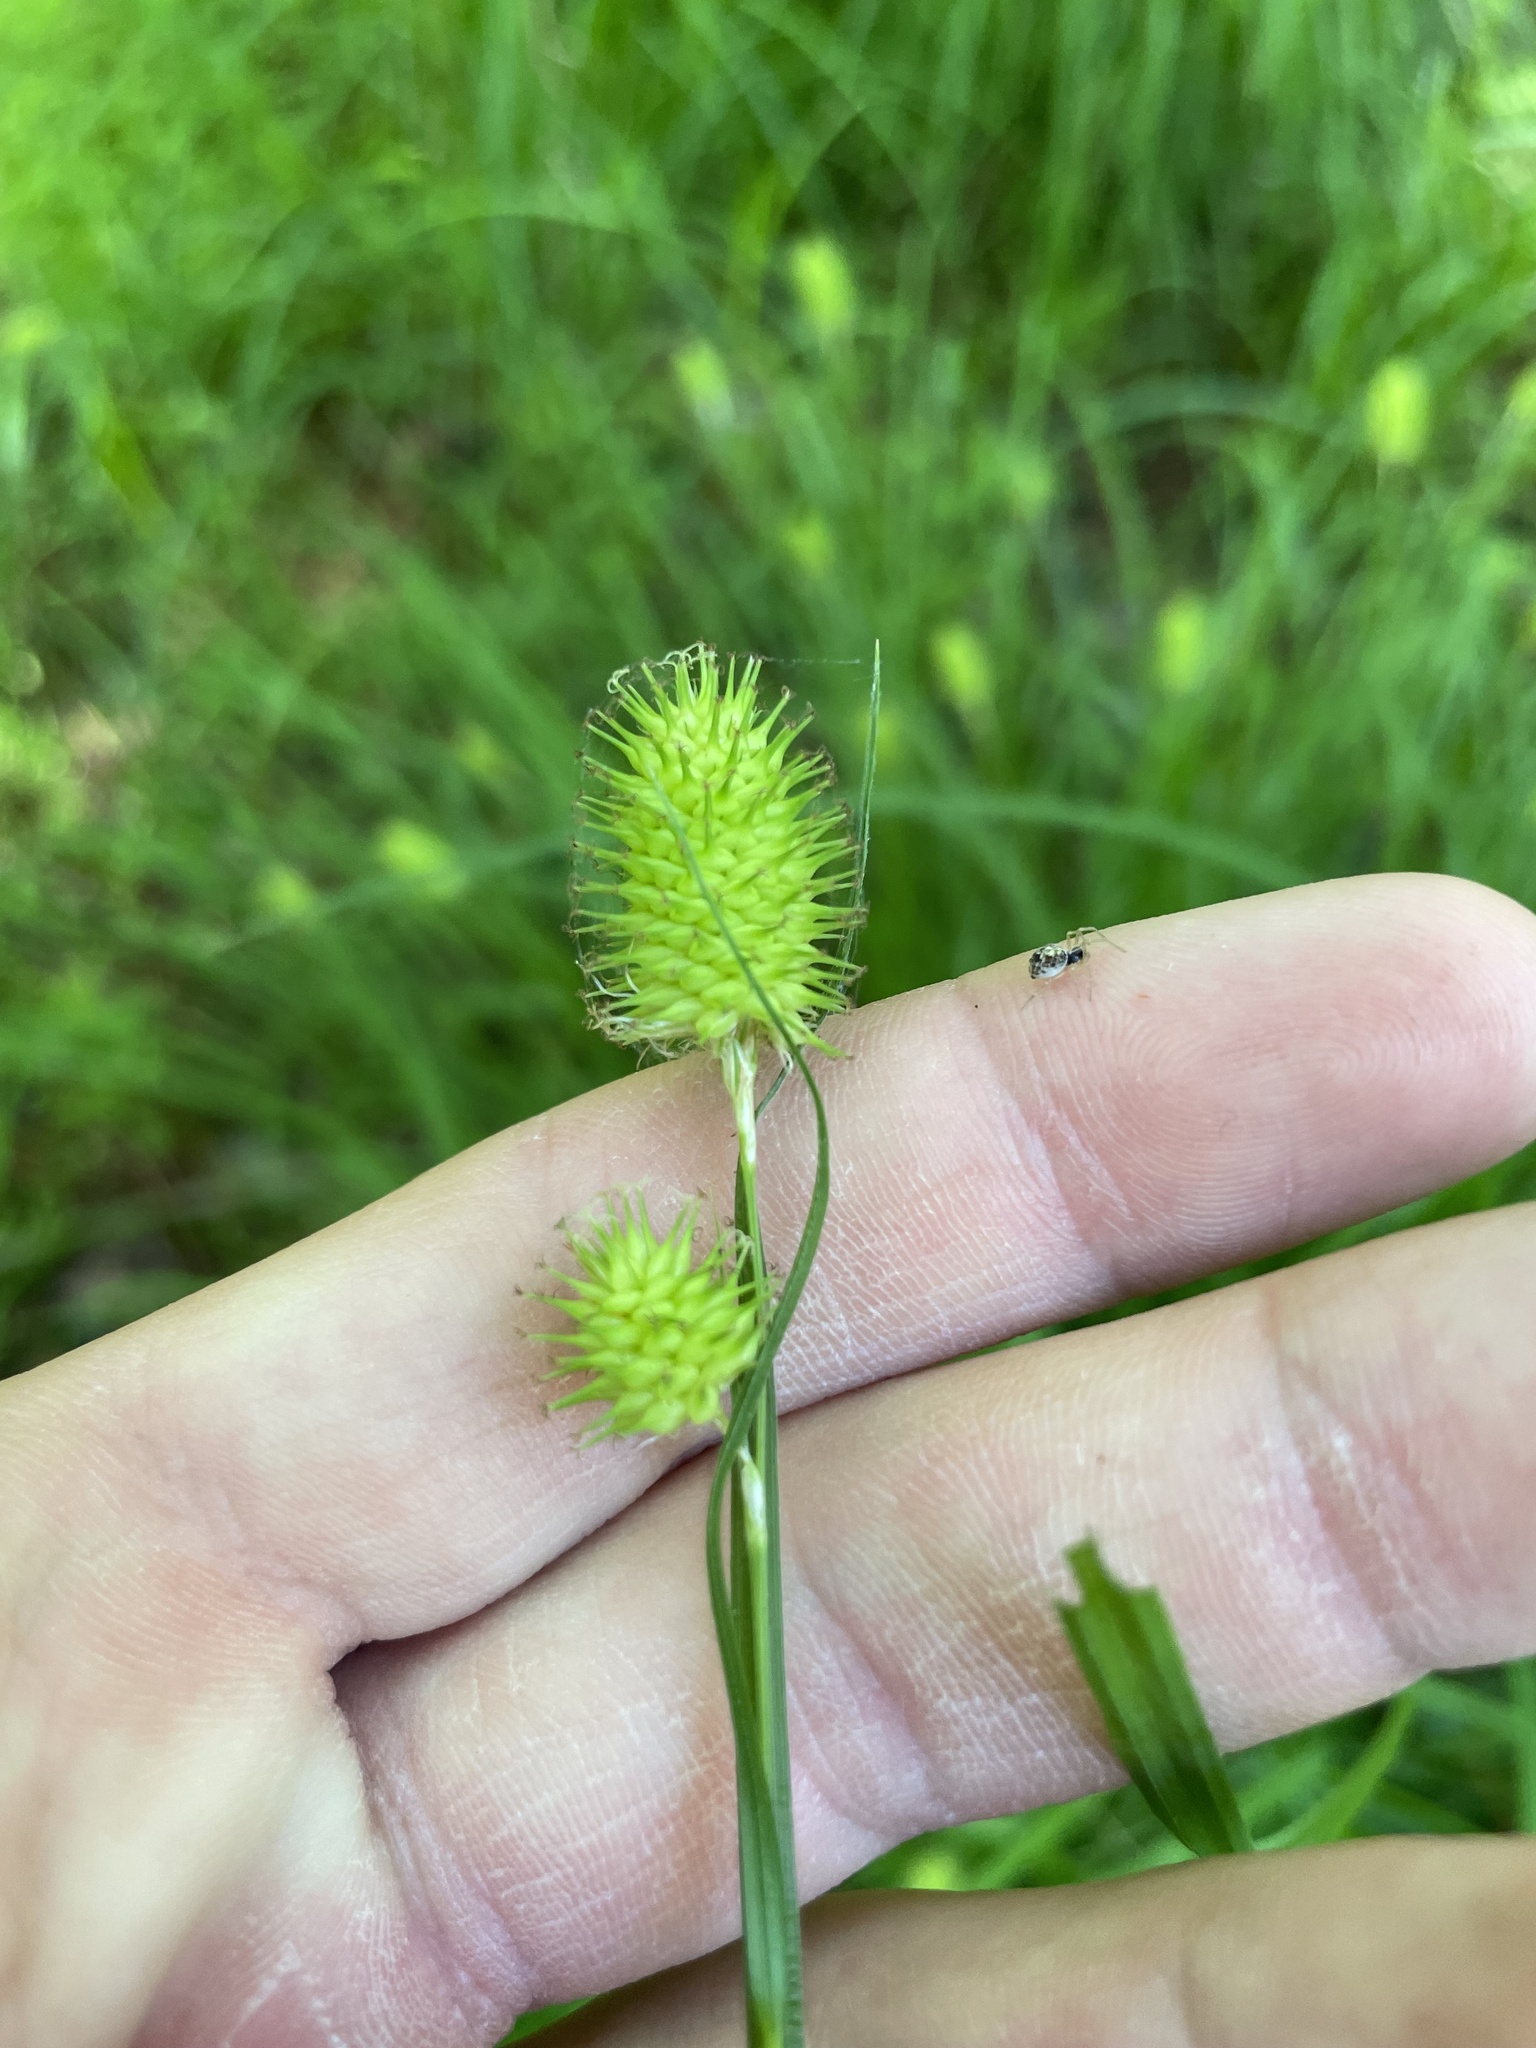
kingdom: Plantae
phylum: Tracheophyta
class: Liliopsida
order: Poales
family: Cyperaceae
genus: Carex
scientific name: Carex typhina
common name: Cattail sedge
